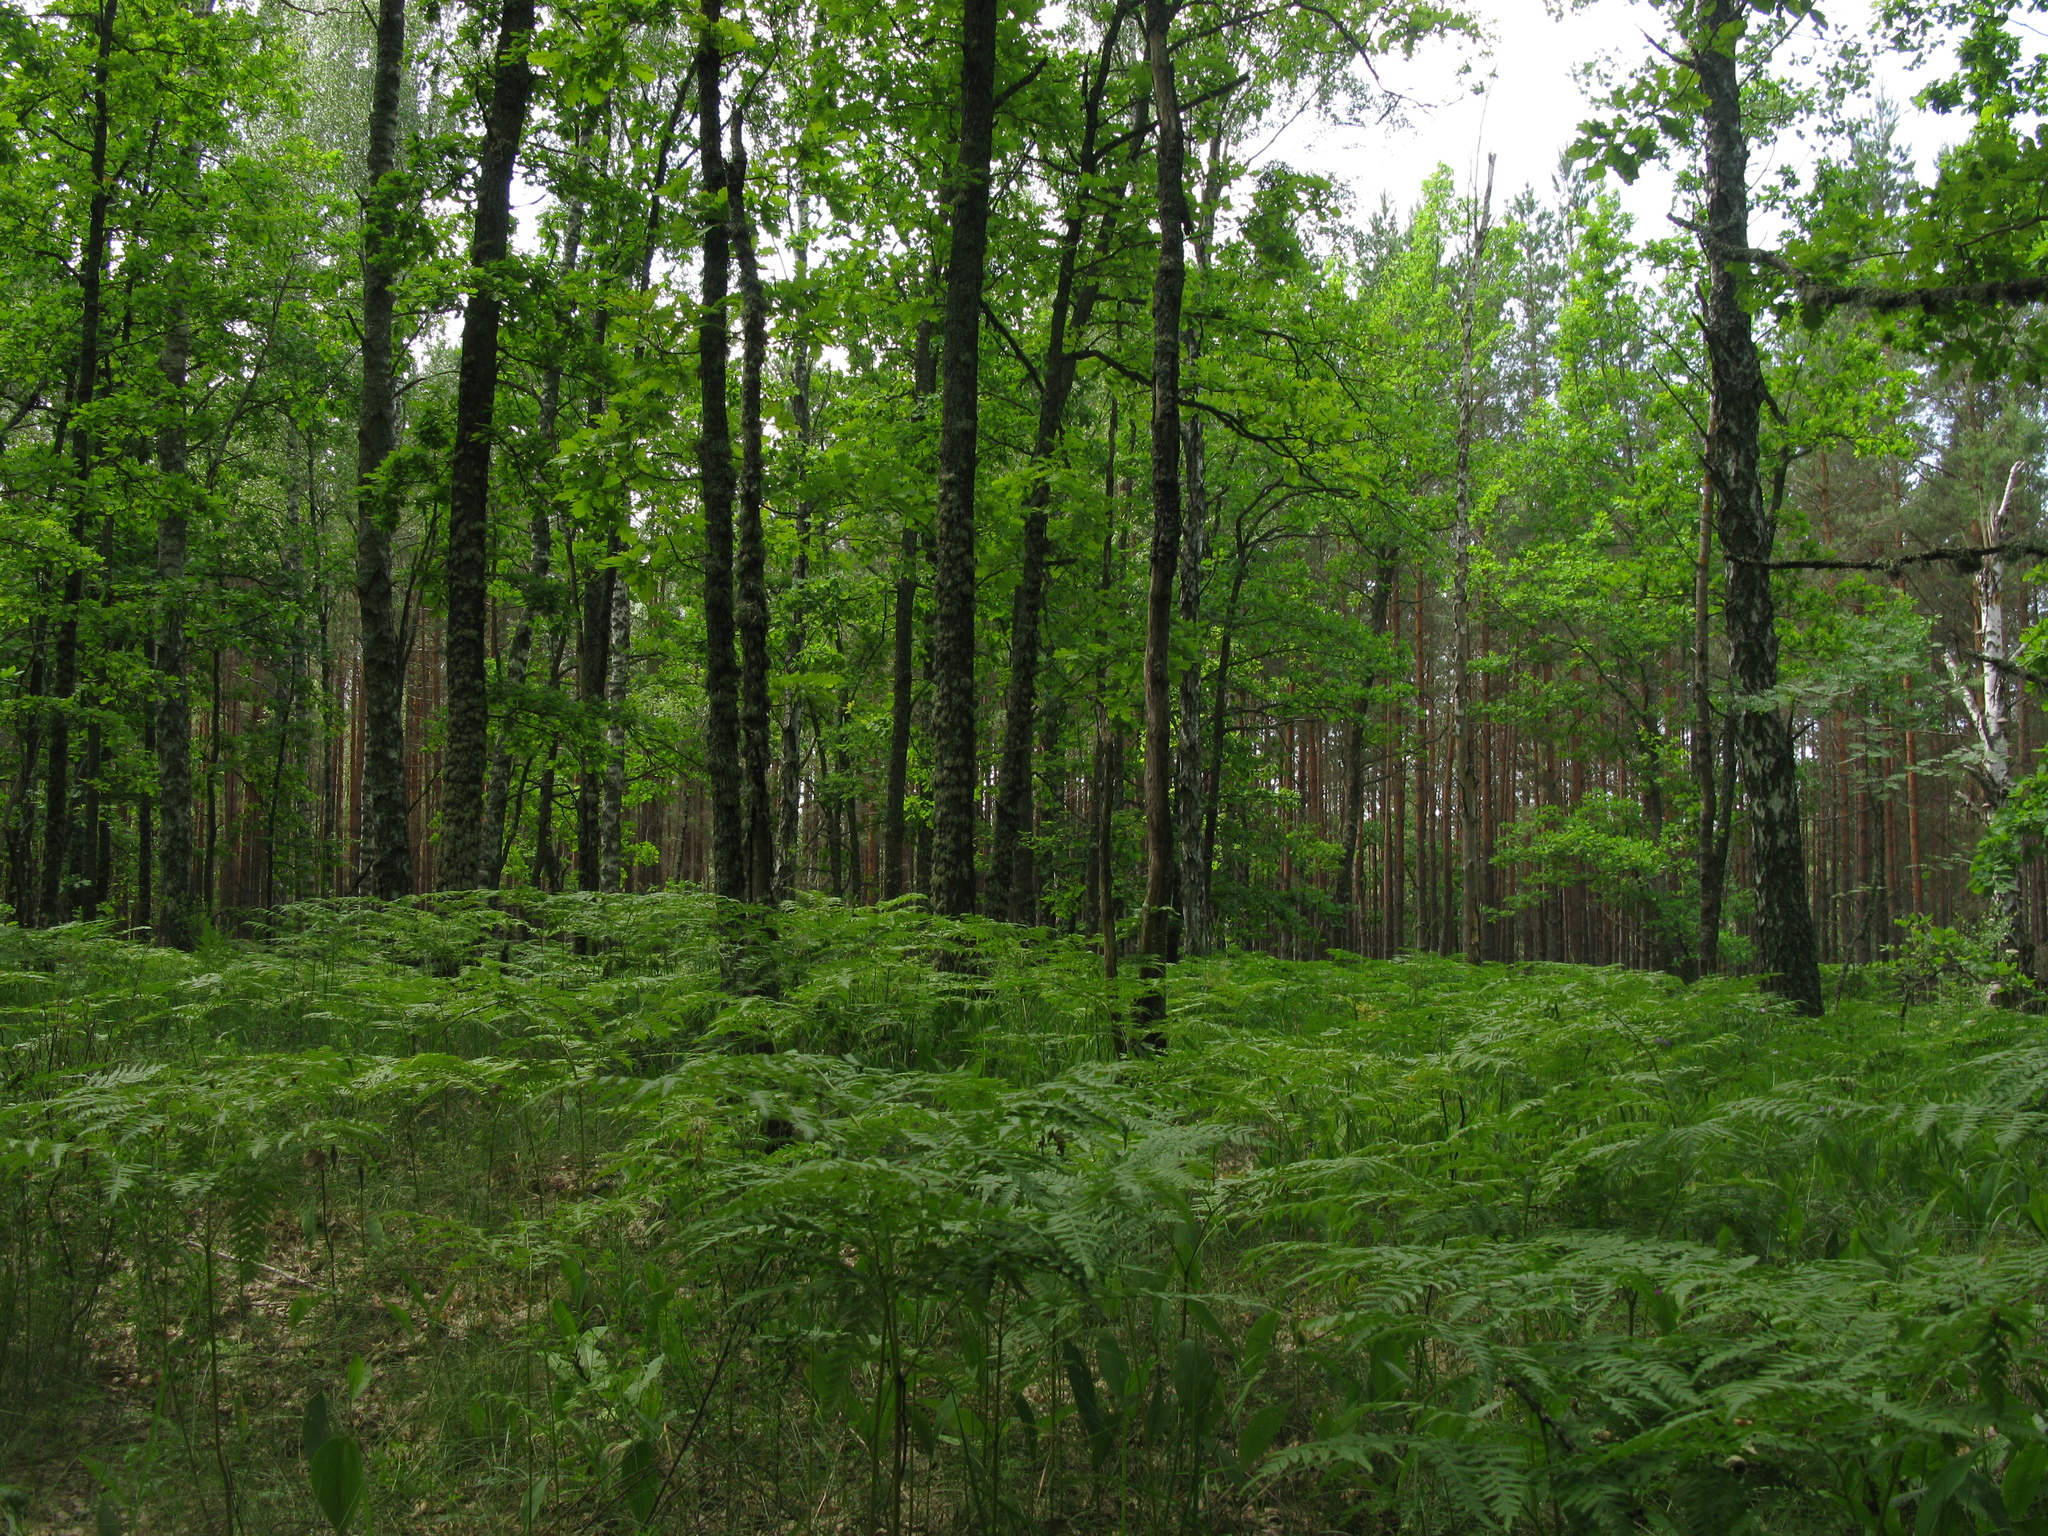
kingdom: Plantae
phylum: Tracheophyta
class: Magnoliopsida
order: Fagales
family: Fagaceae
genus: Quercus
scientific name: Quercus robur
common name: Pedunculate oak
